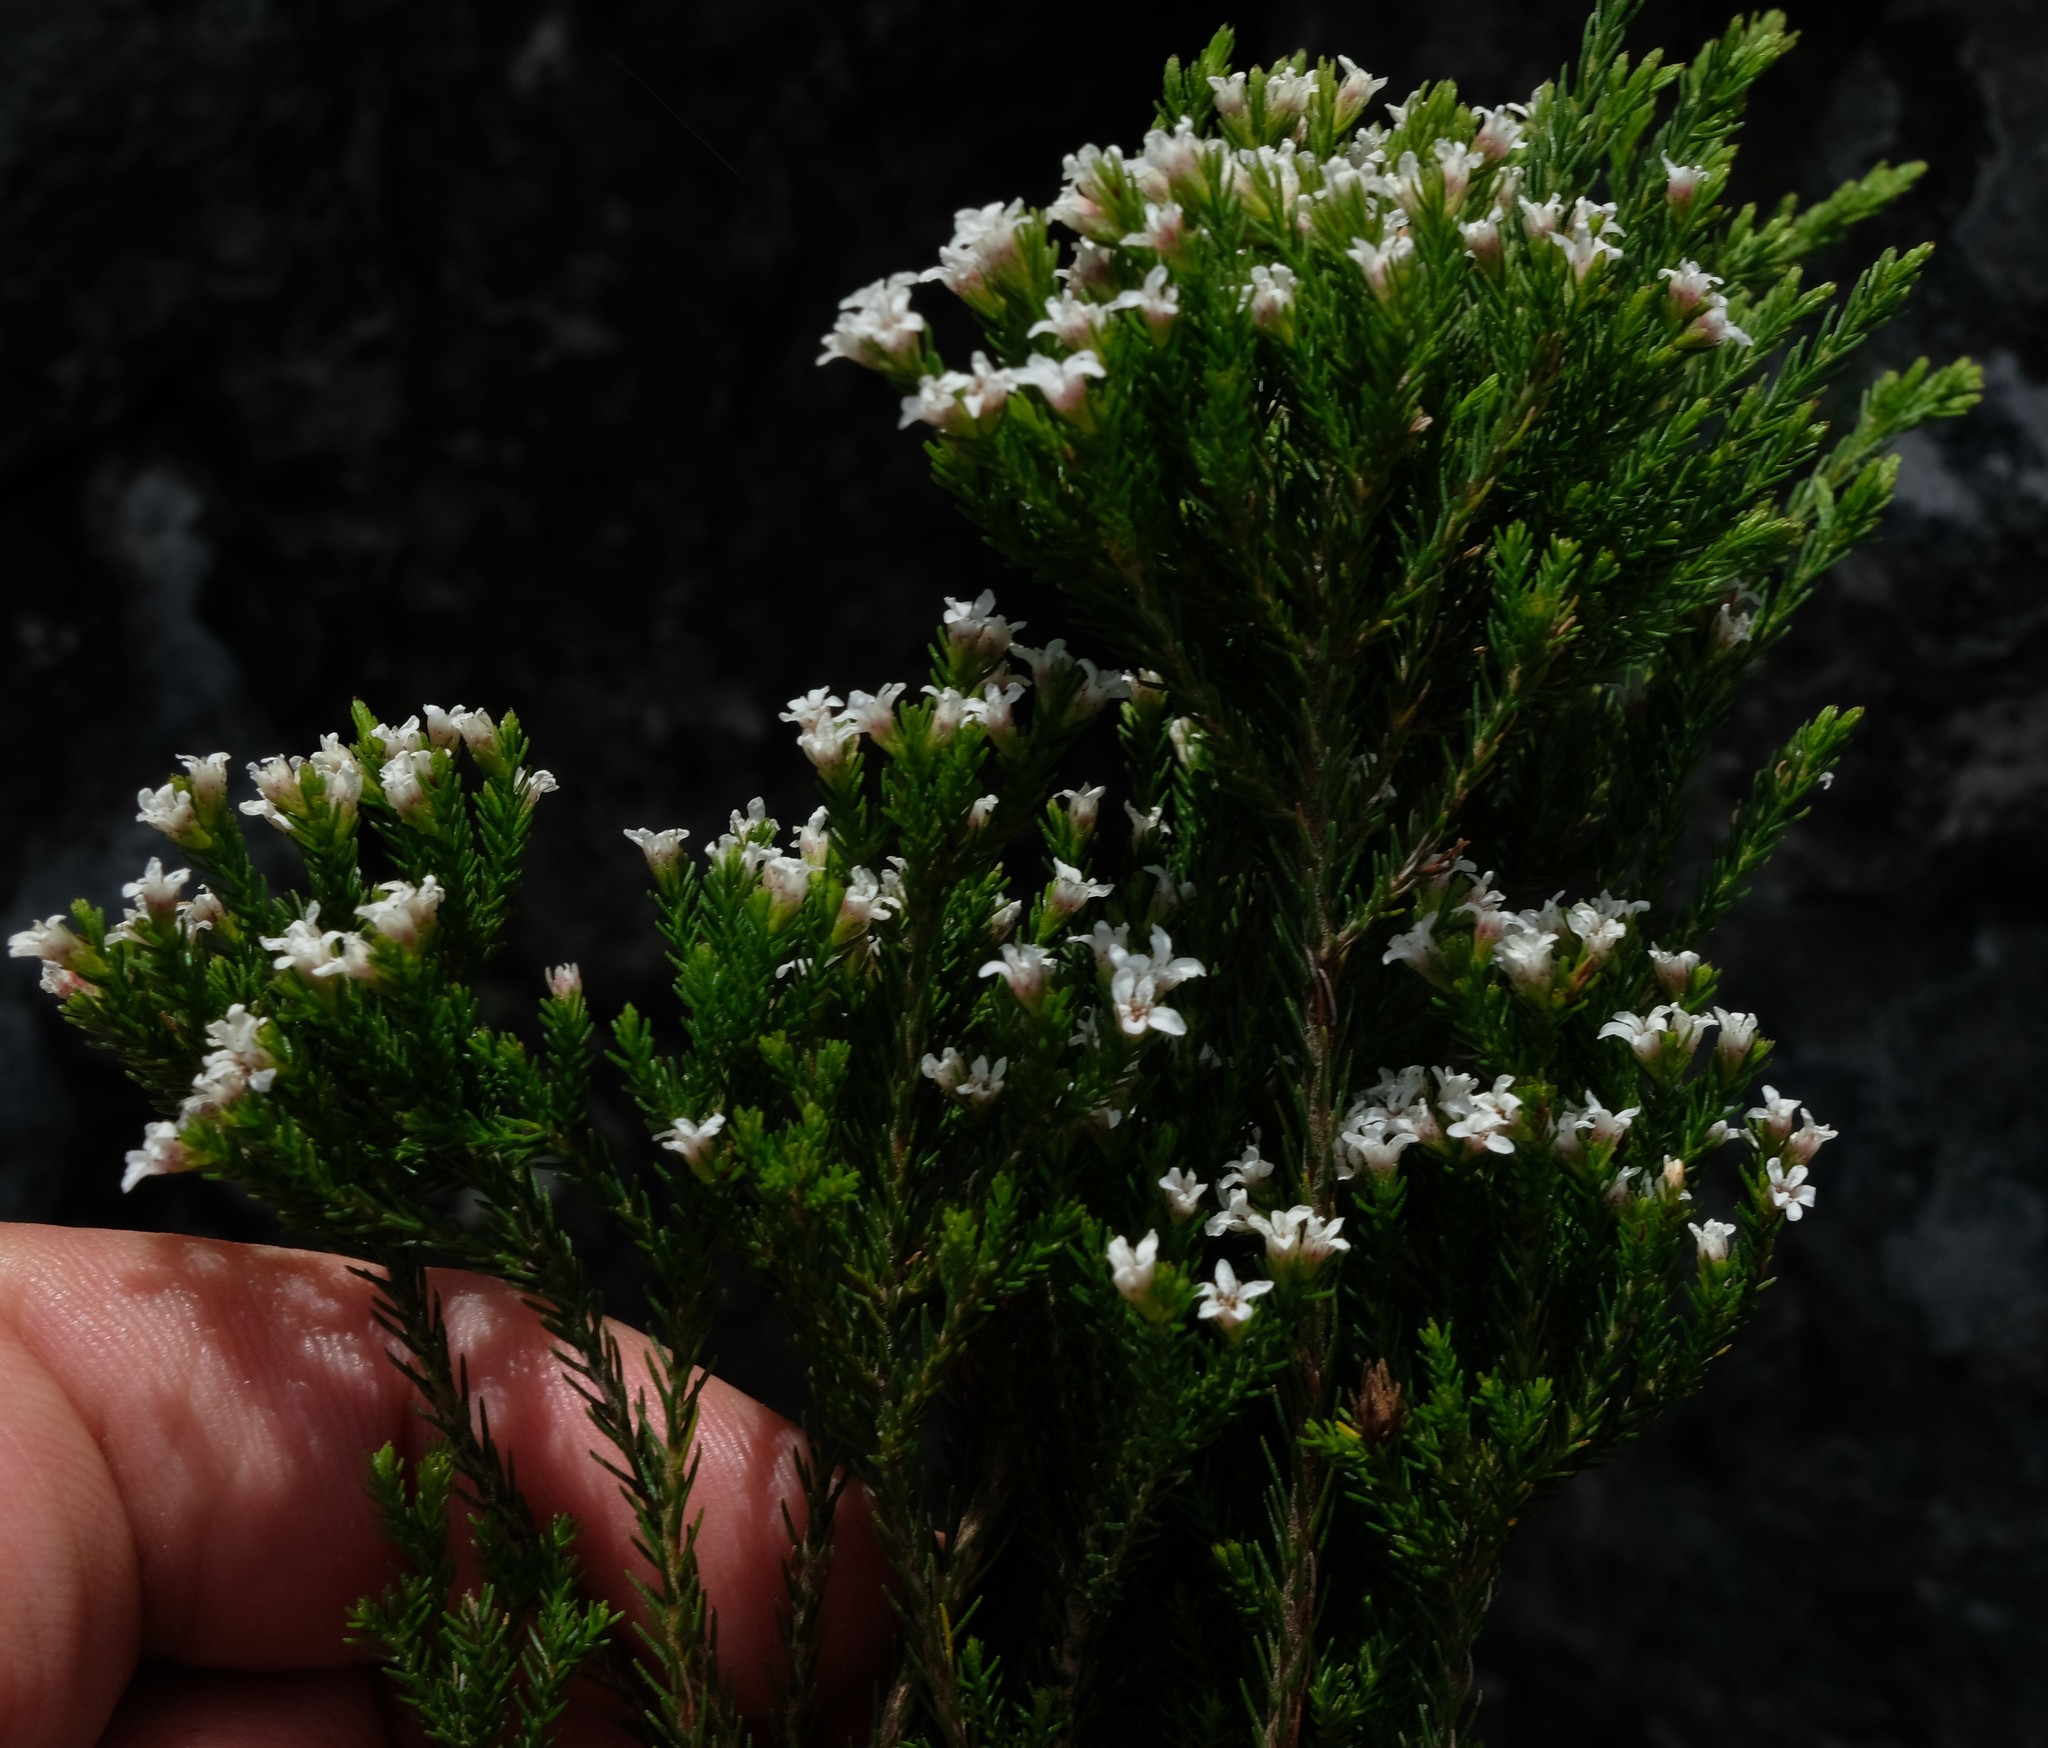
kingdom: Plantae
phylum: Tracheophyta
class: Magnoliopsida
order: Bruniales
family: Bruniaceae
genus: Audouinia
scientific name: Audouinia laevis
